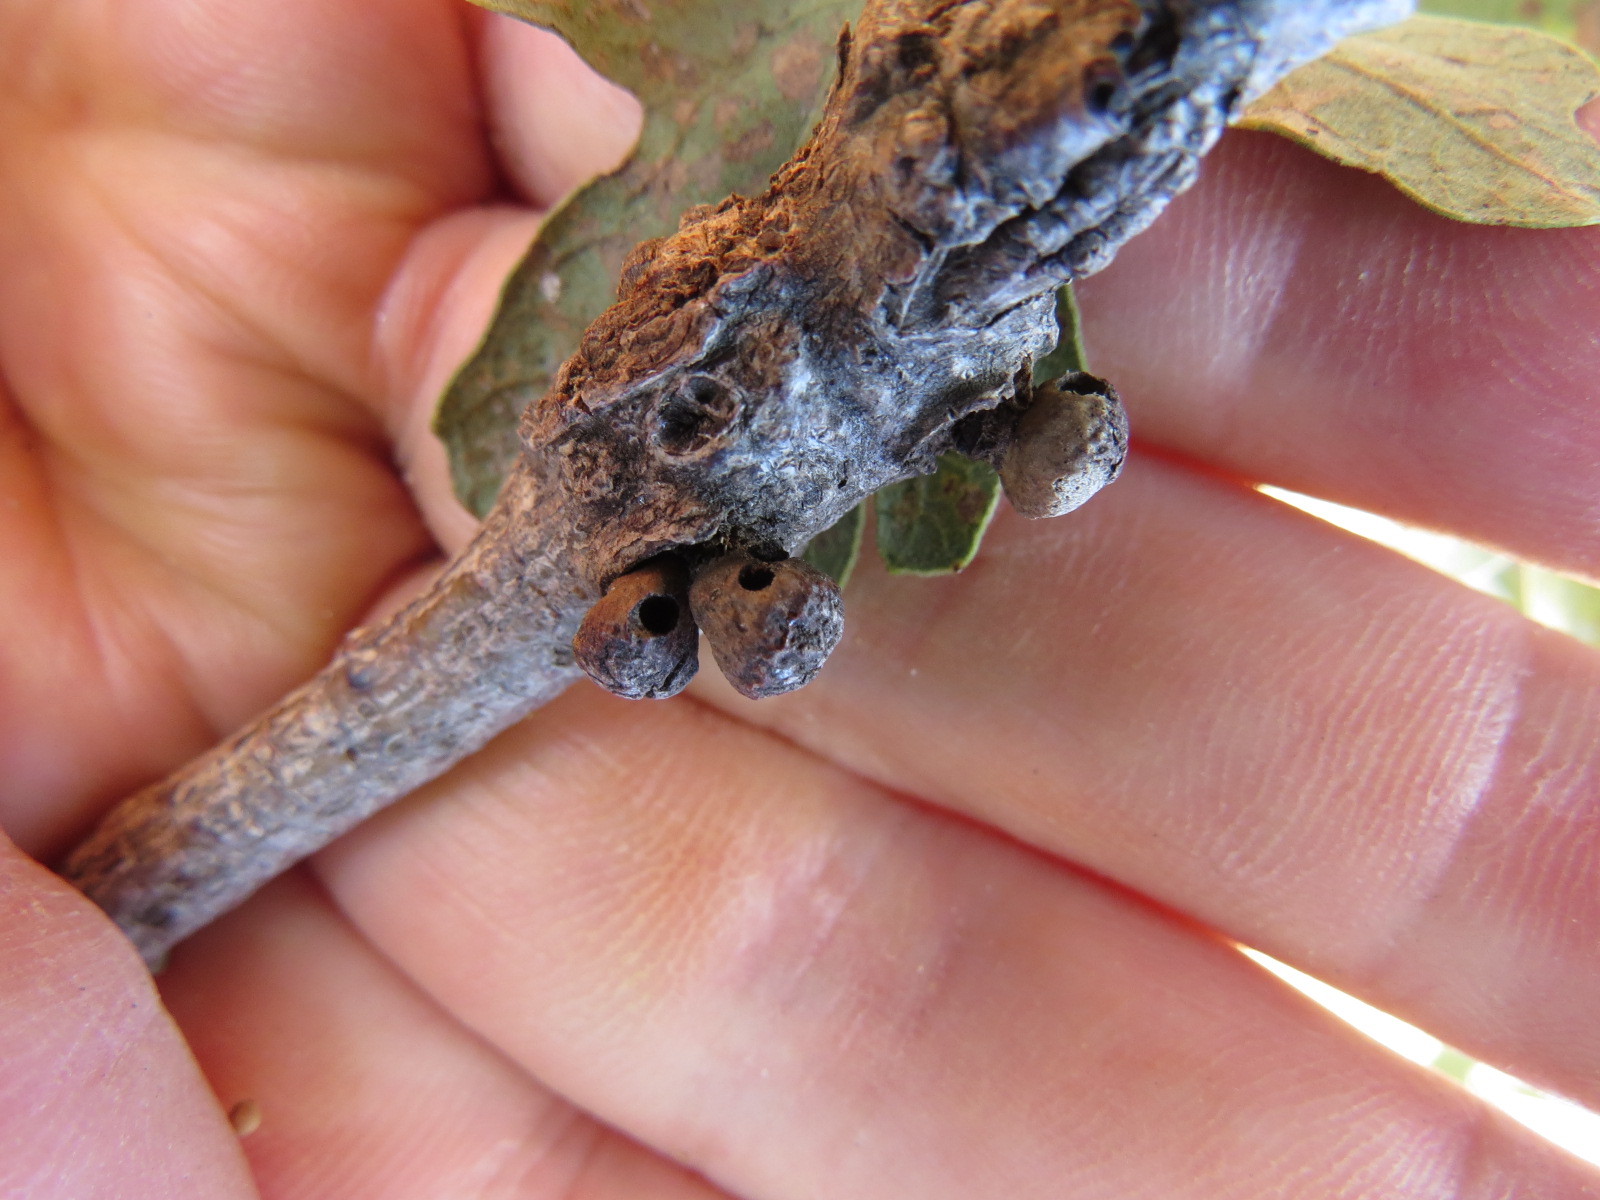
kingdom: Animalia
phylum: Arthropoda
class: Insecta
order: Hymenoptera
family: Cynipidae
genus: Disholcaspis
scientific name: Disholcaspis
